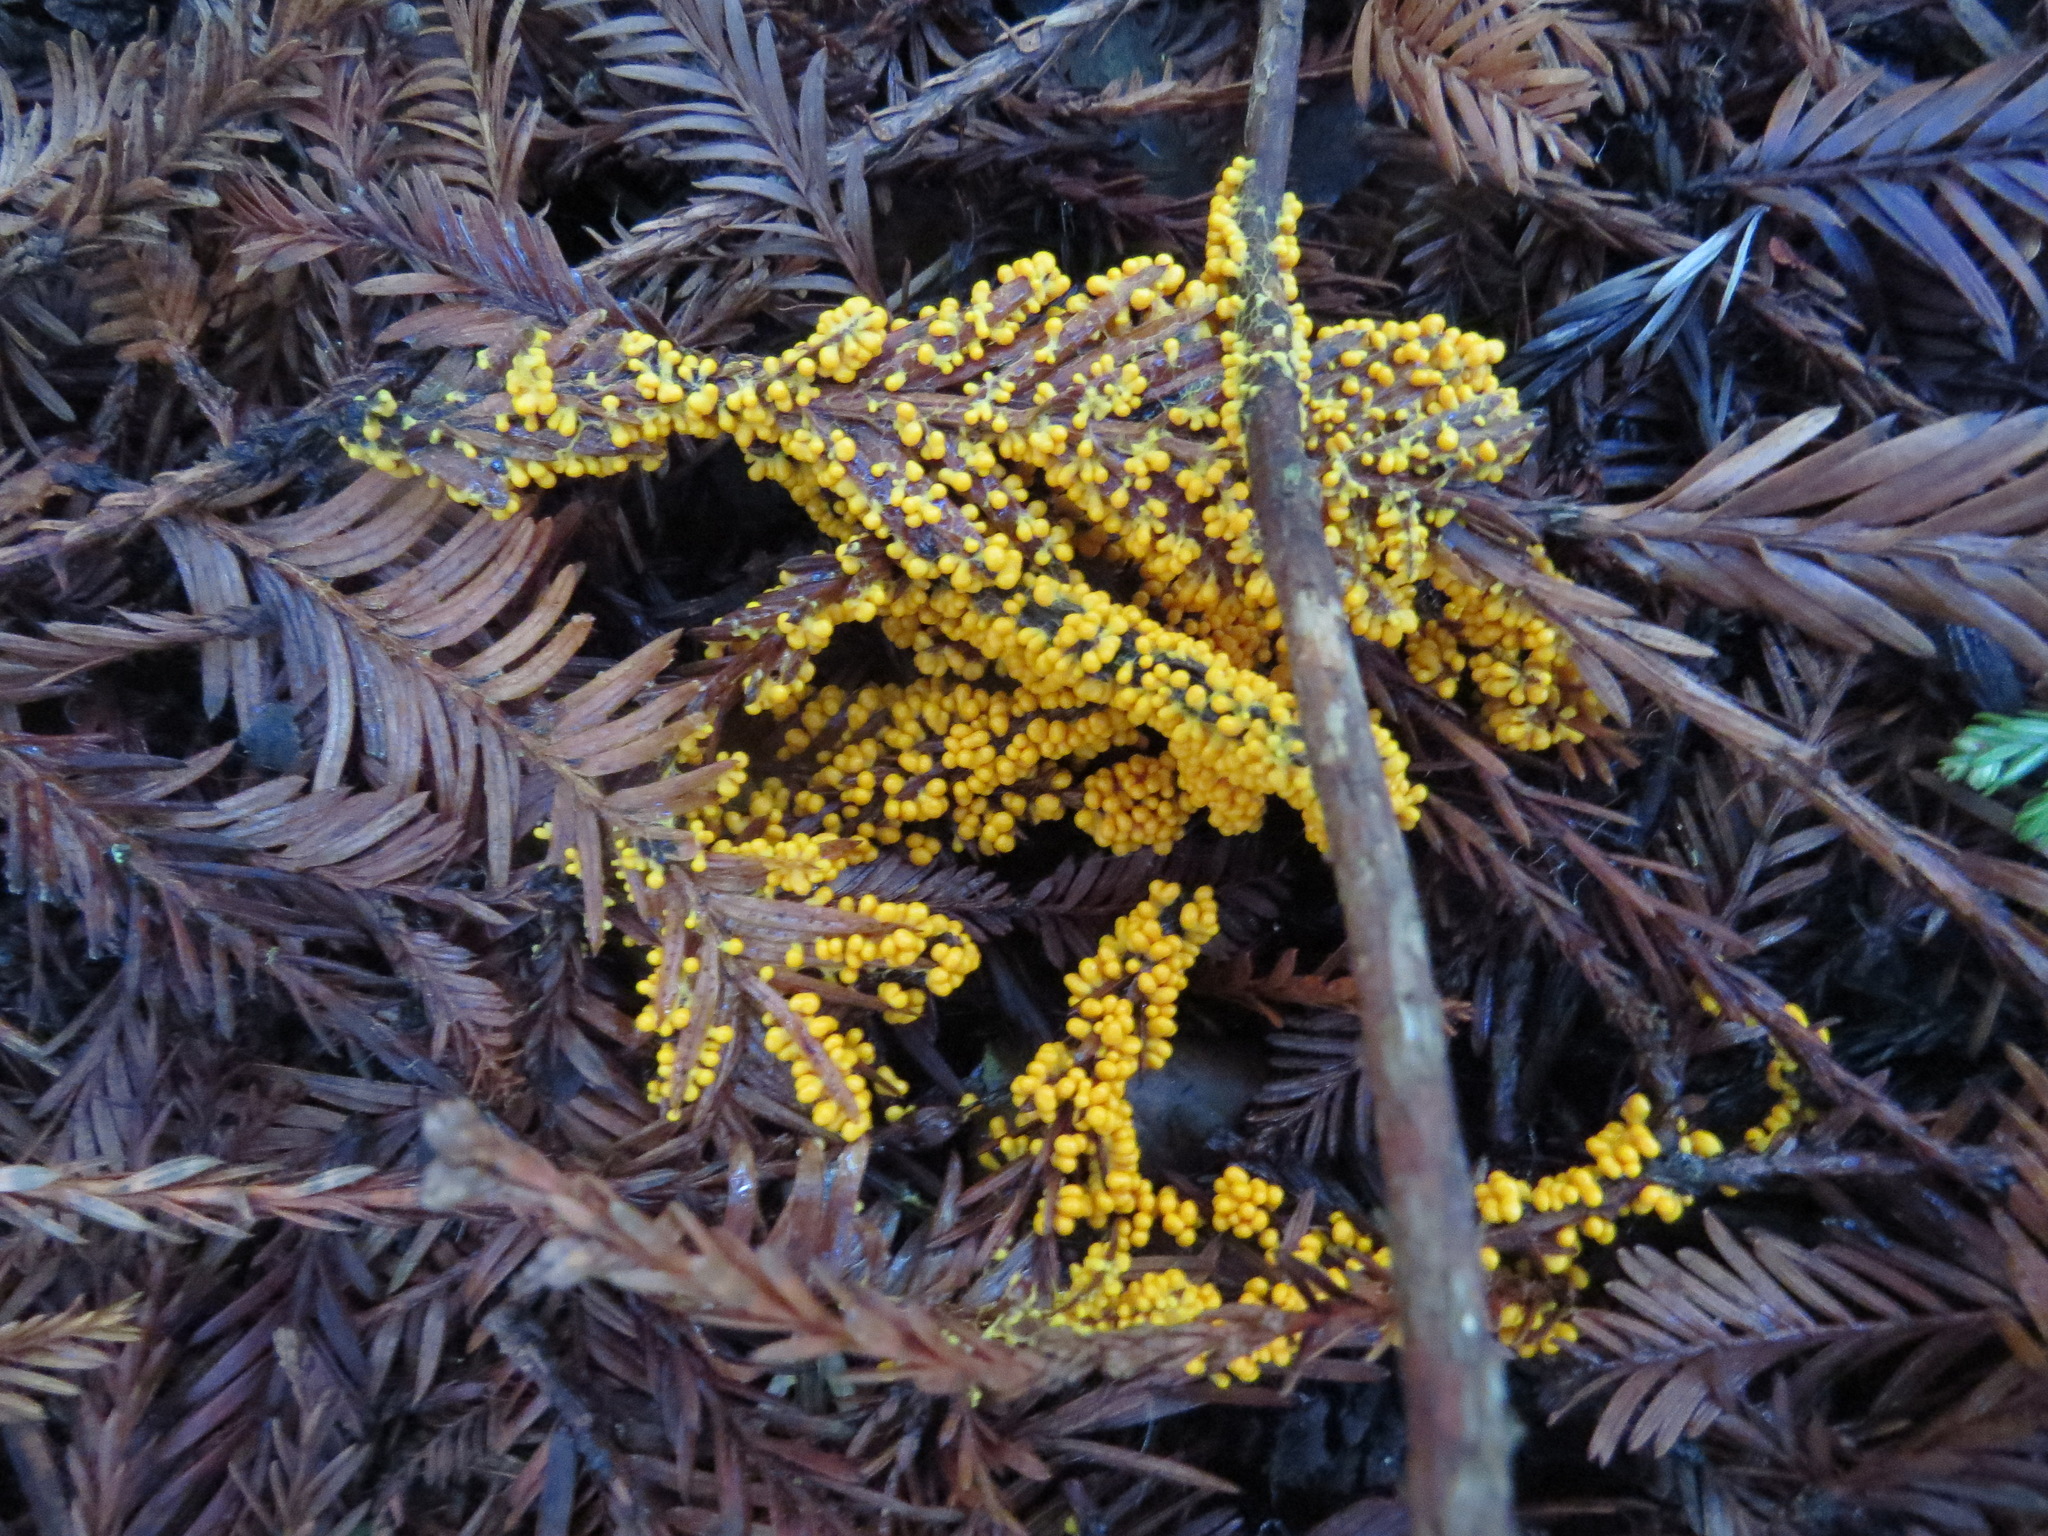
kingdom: Protozoa
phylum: Mycetozoa
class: Myxomycetes
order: Physarales
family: Physaraceae
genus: Leocarpus
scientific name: Leocarpus fragilis
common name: Insect-egg slime
